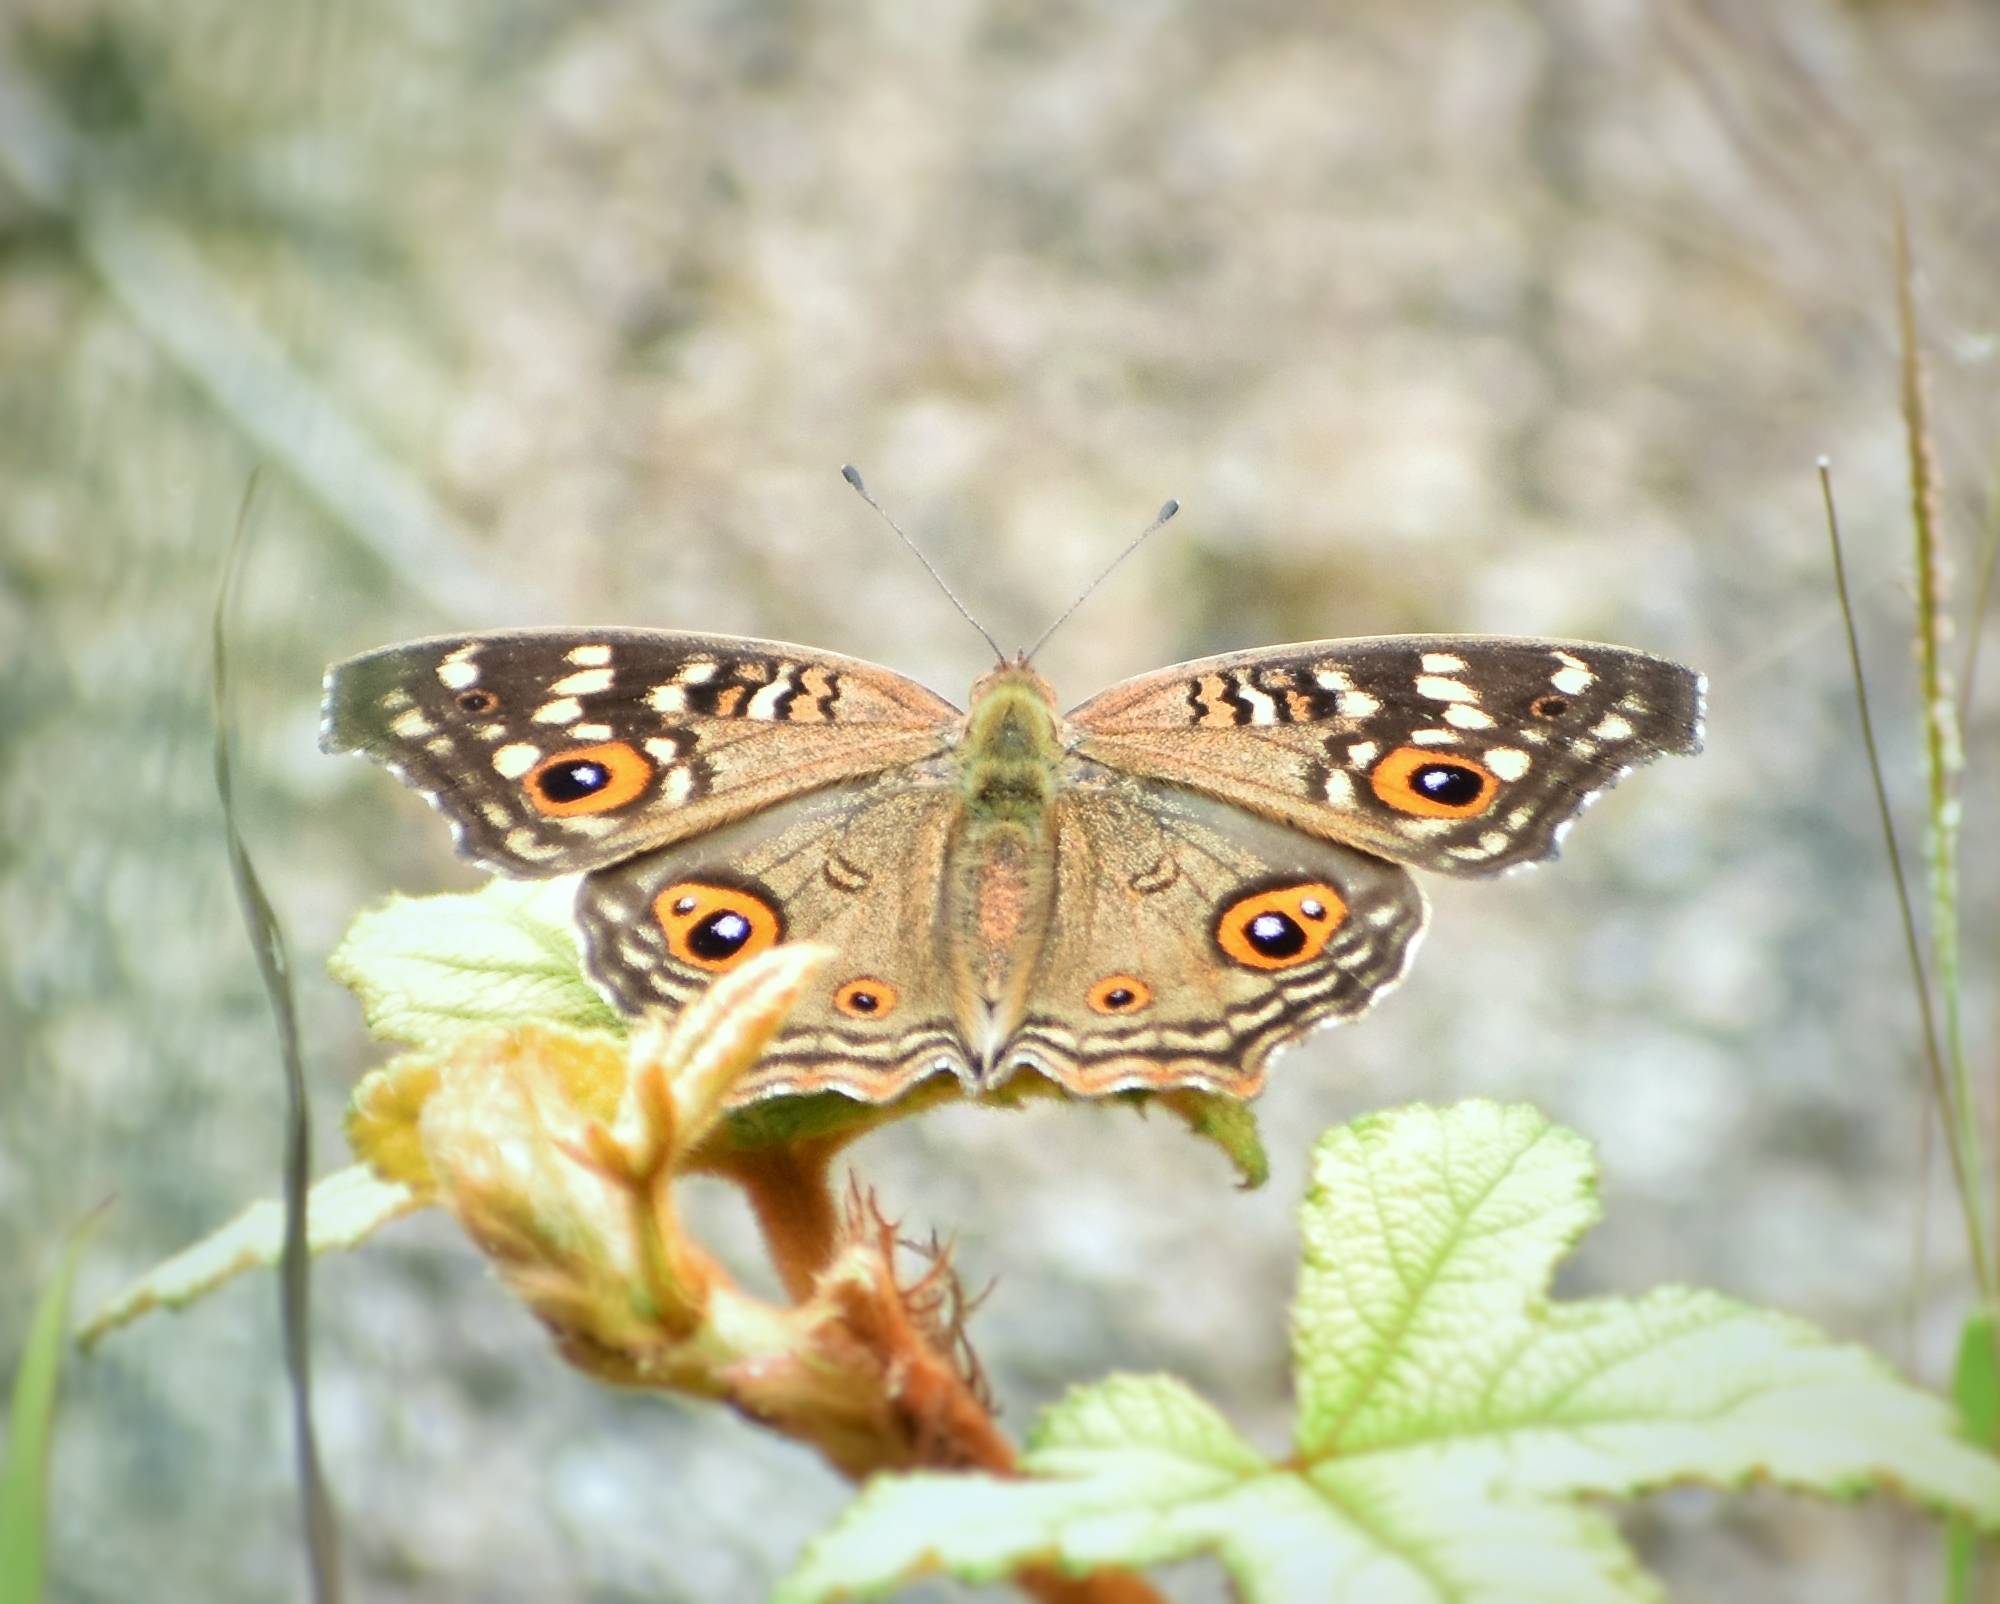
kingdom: Animalia
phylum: Arthropoda
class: Insecta
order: Lepidoptera
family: Nymphalidae
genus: Junonia
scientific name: Junonia lemonias
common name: Lemon pansy
